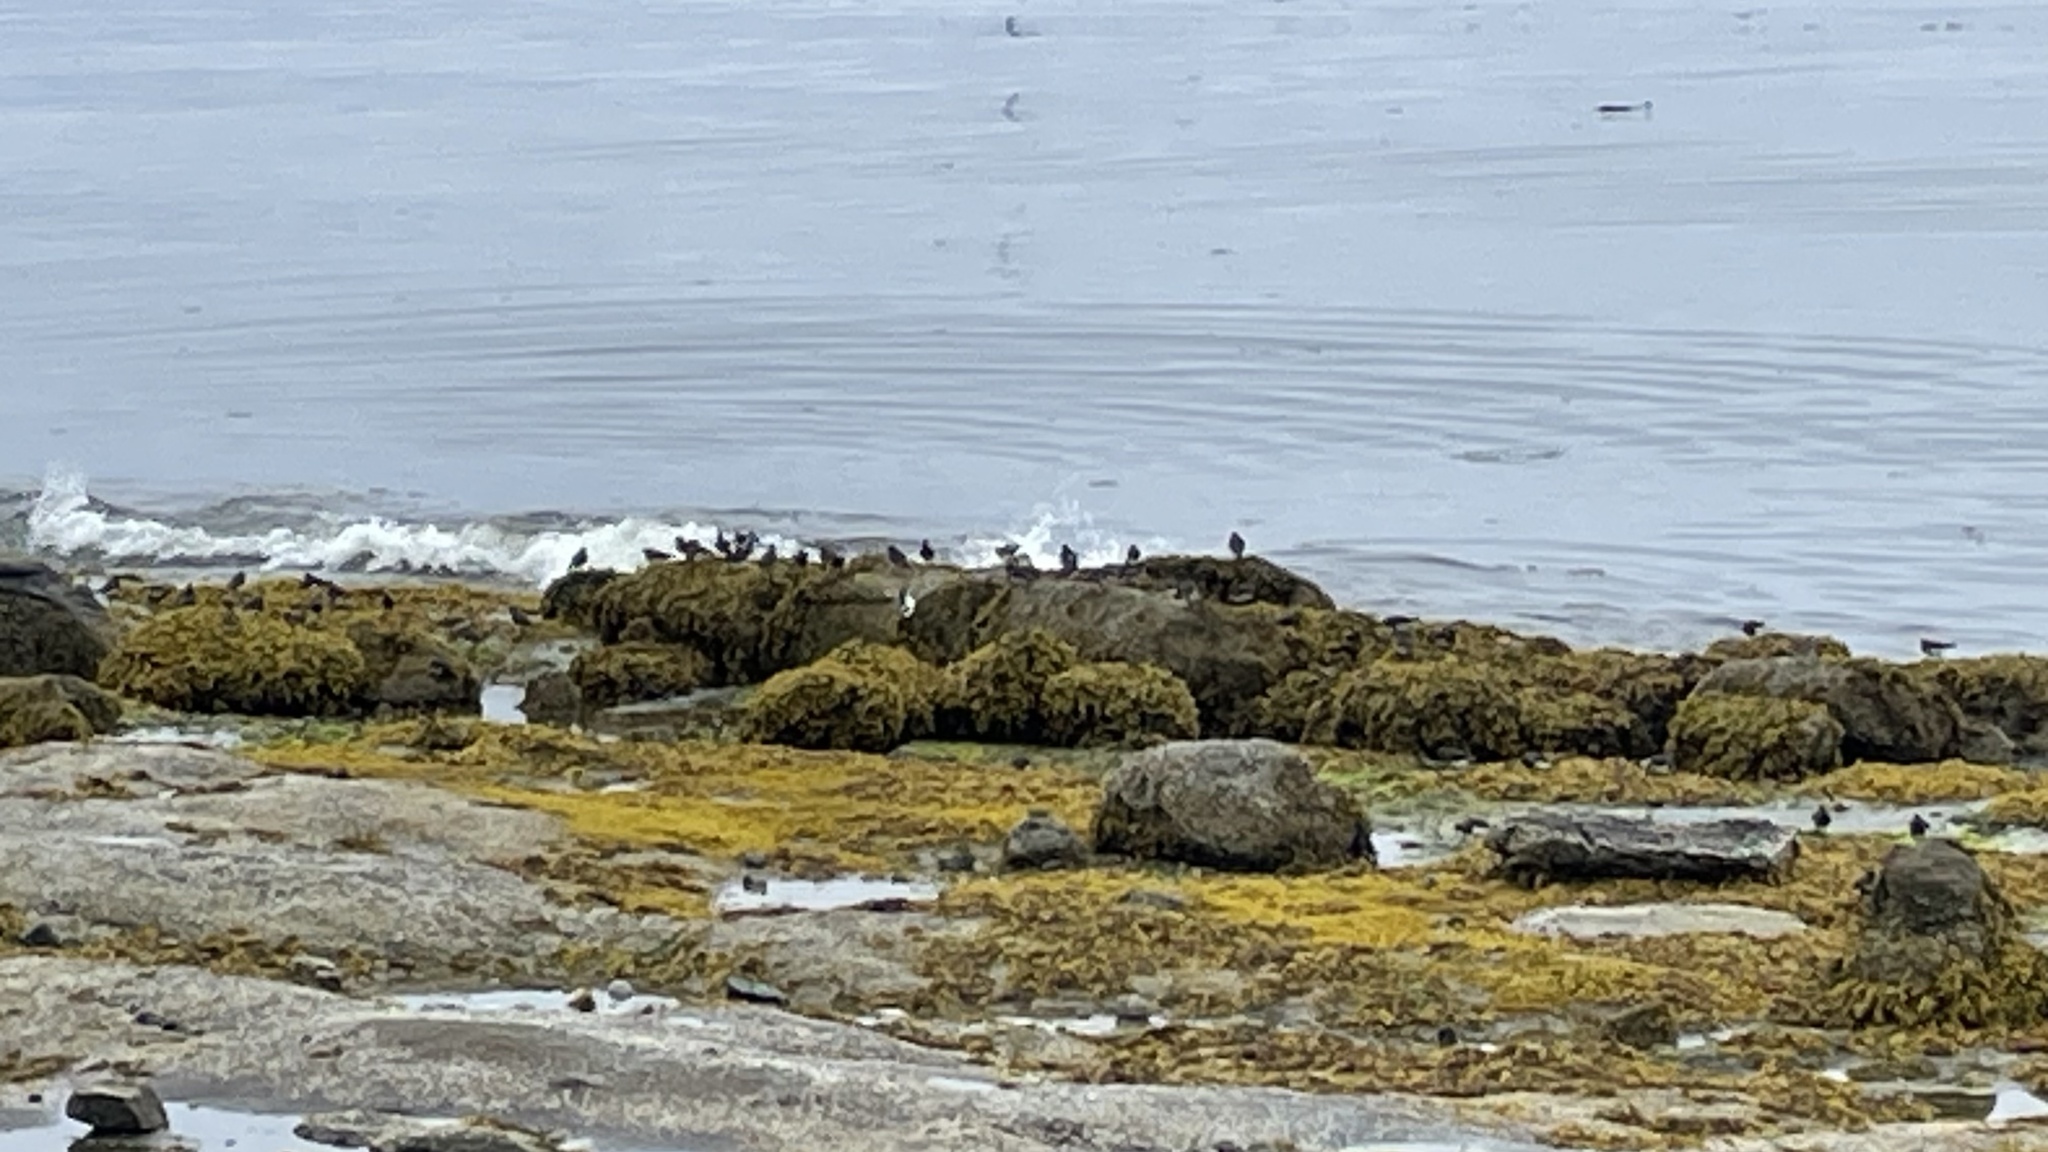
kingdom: Animalia
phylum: Chordata
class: Aves
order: Charadriiformes
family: Scolopacidae
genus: Arenaria
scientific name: Arenaria melanocephala
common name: Black turnstone
